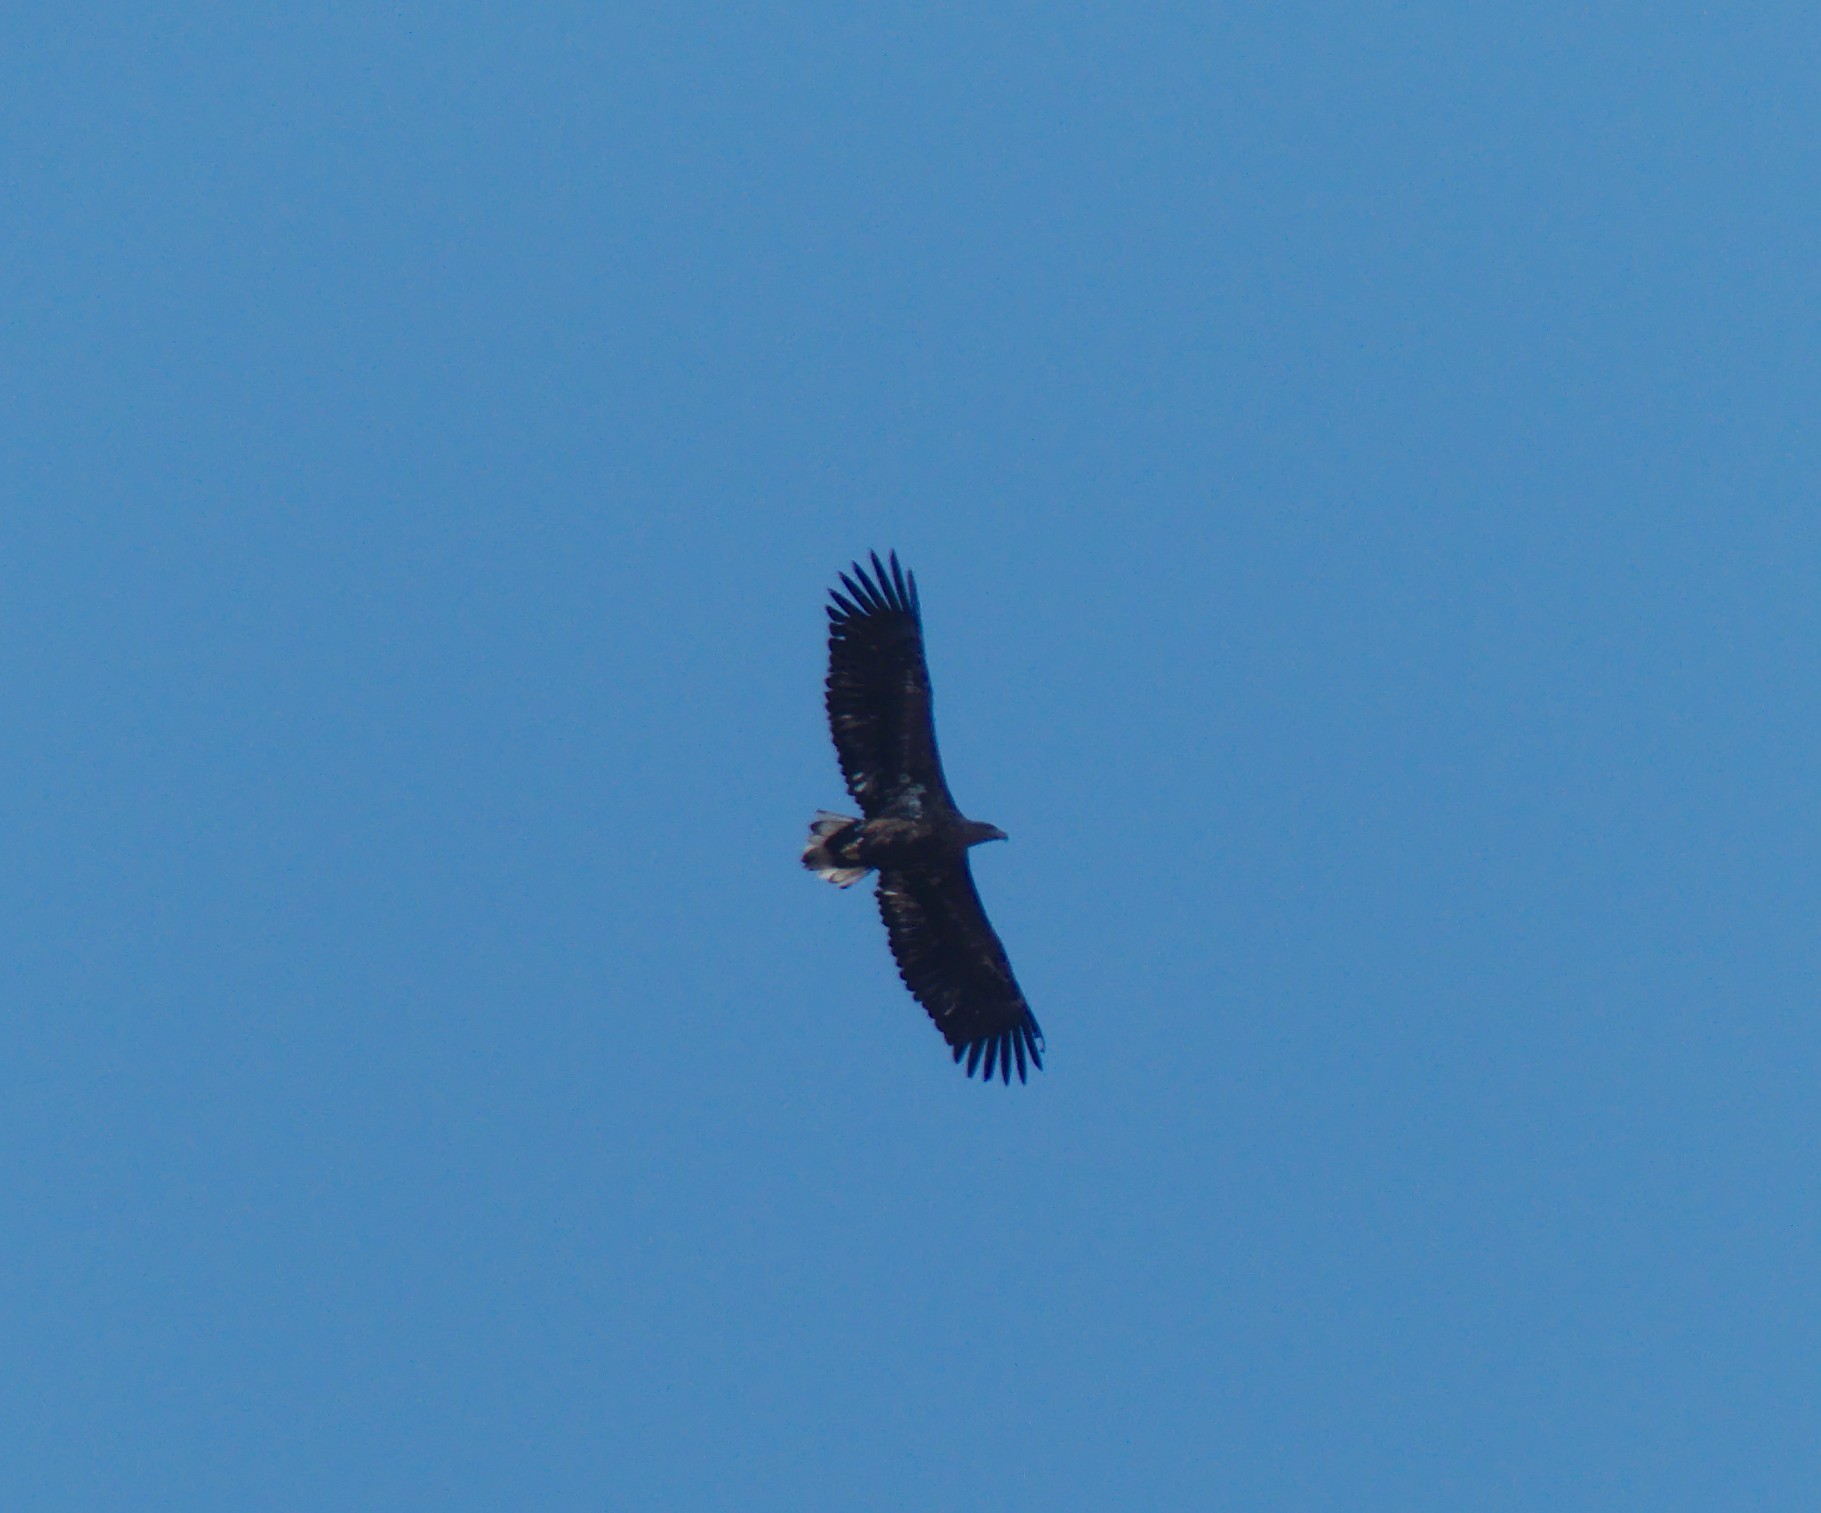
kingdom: Animalia
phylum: Chordata
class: Aves
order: Accipitriformes
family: Accipitridae
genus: Haliaeetus
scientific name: Haliaeetus albicilla
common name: White-tailed eagle
